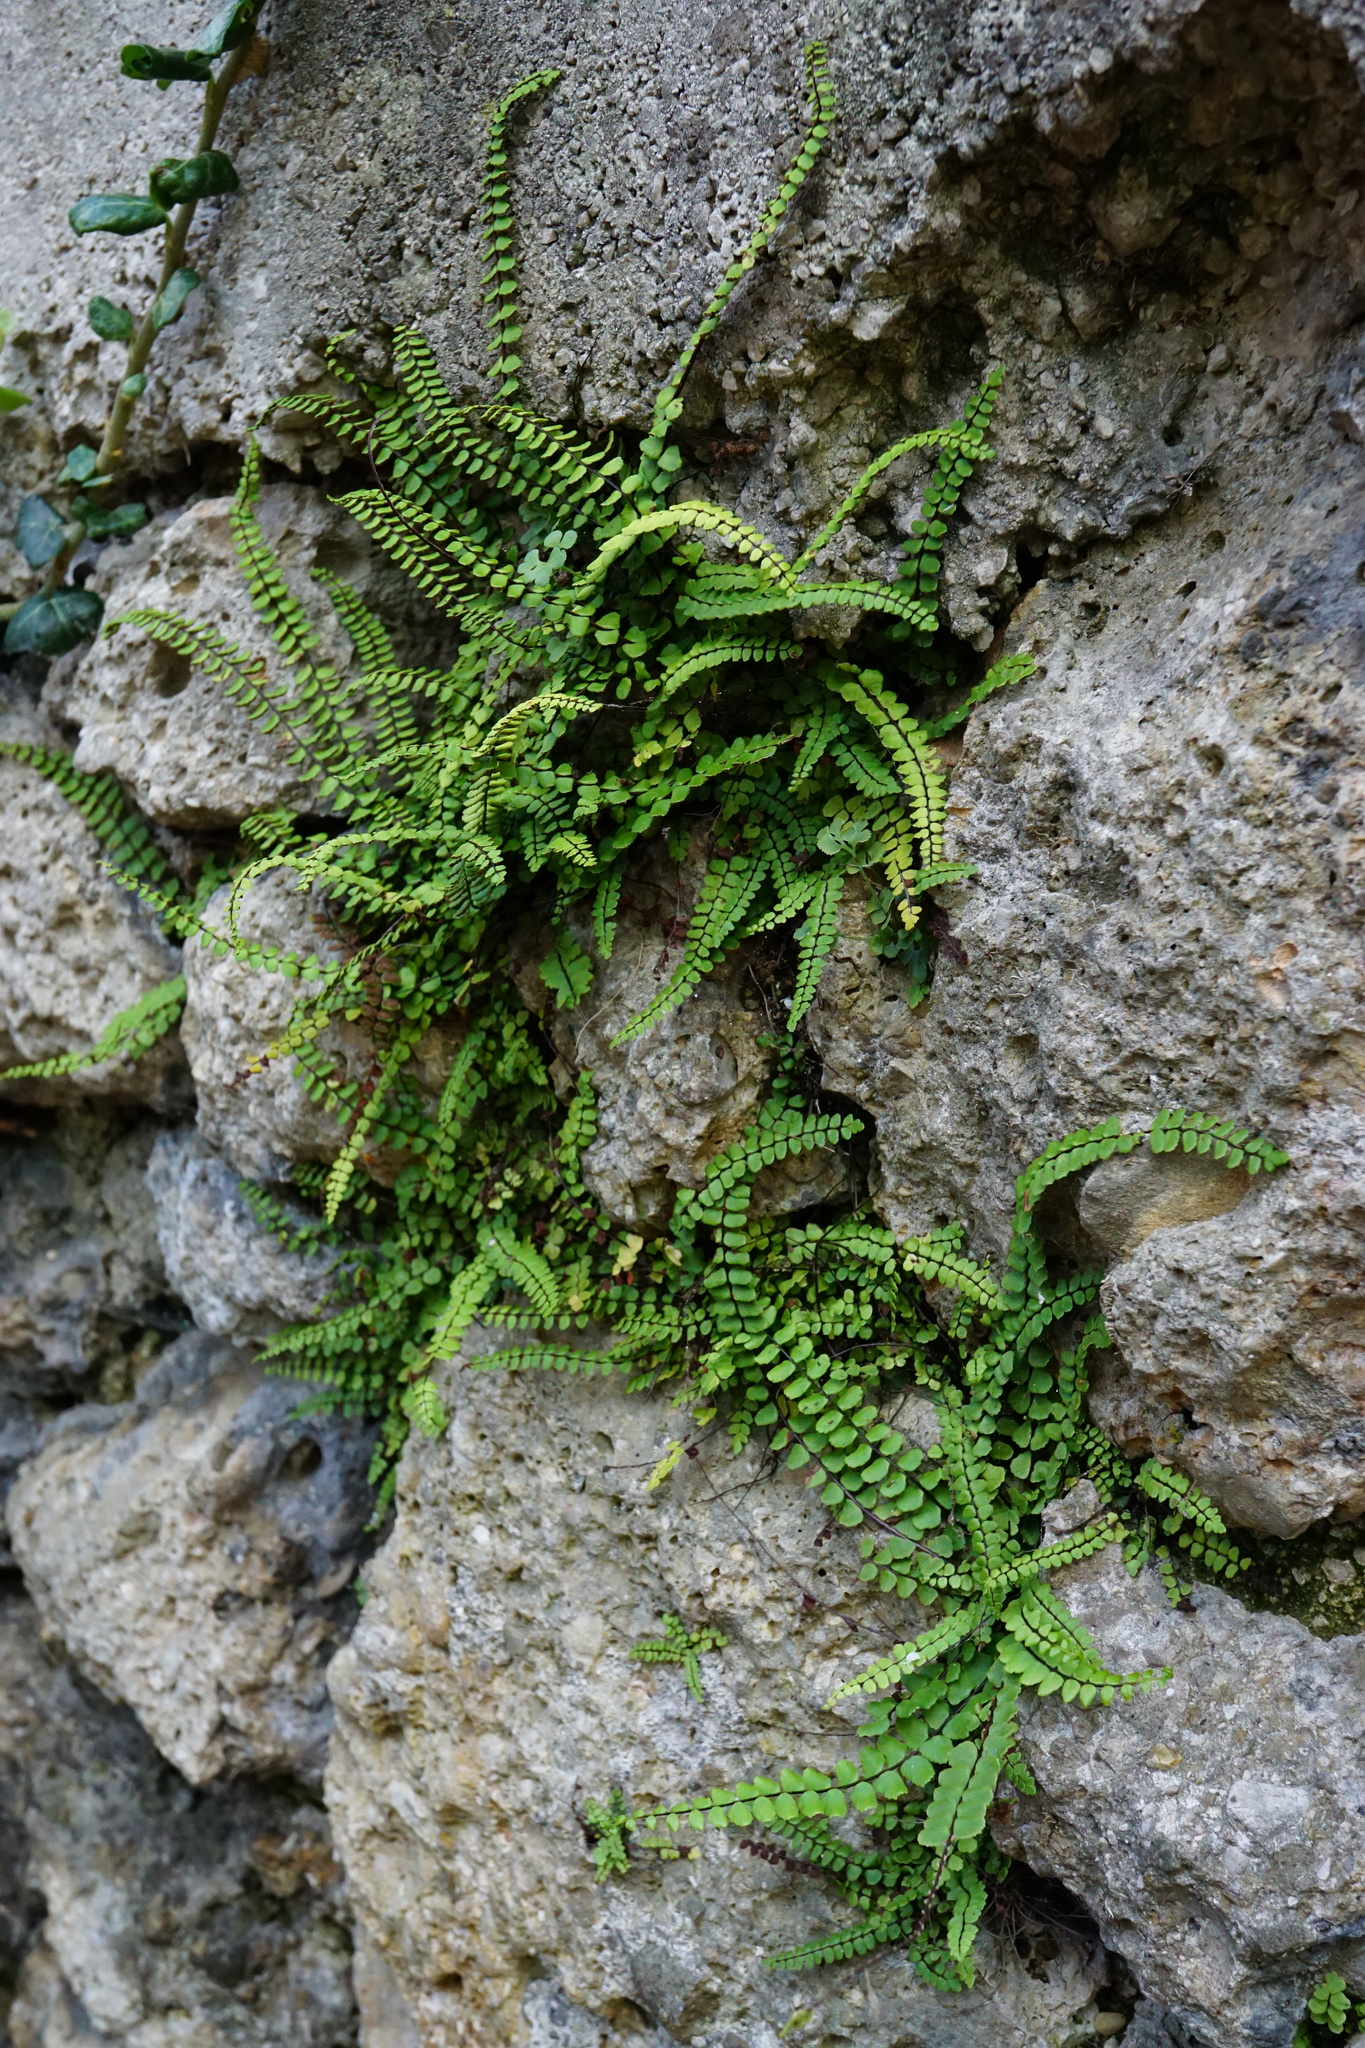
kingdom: Plantae
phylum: Tracheophyta
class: Polypodiopsida
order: Polypodiales
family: Aspleniaceae
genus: Asplenium
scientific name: Asplenium trichomanes
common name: Maidenhair spleenwort
